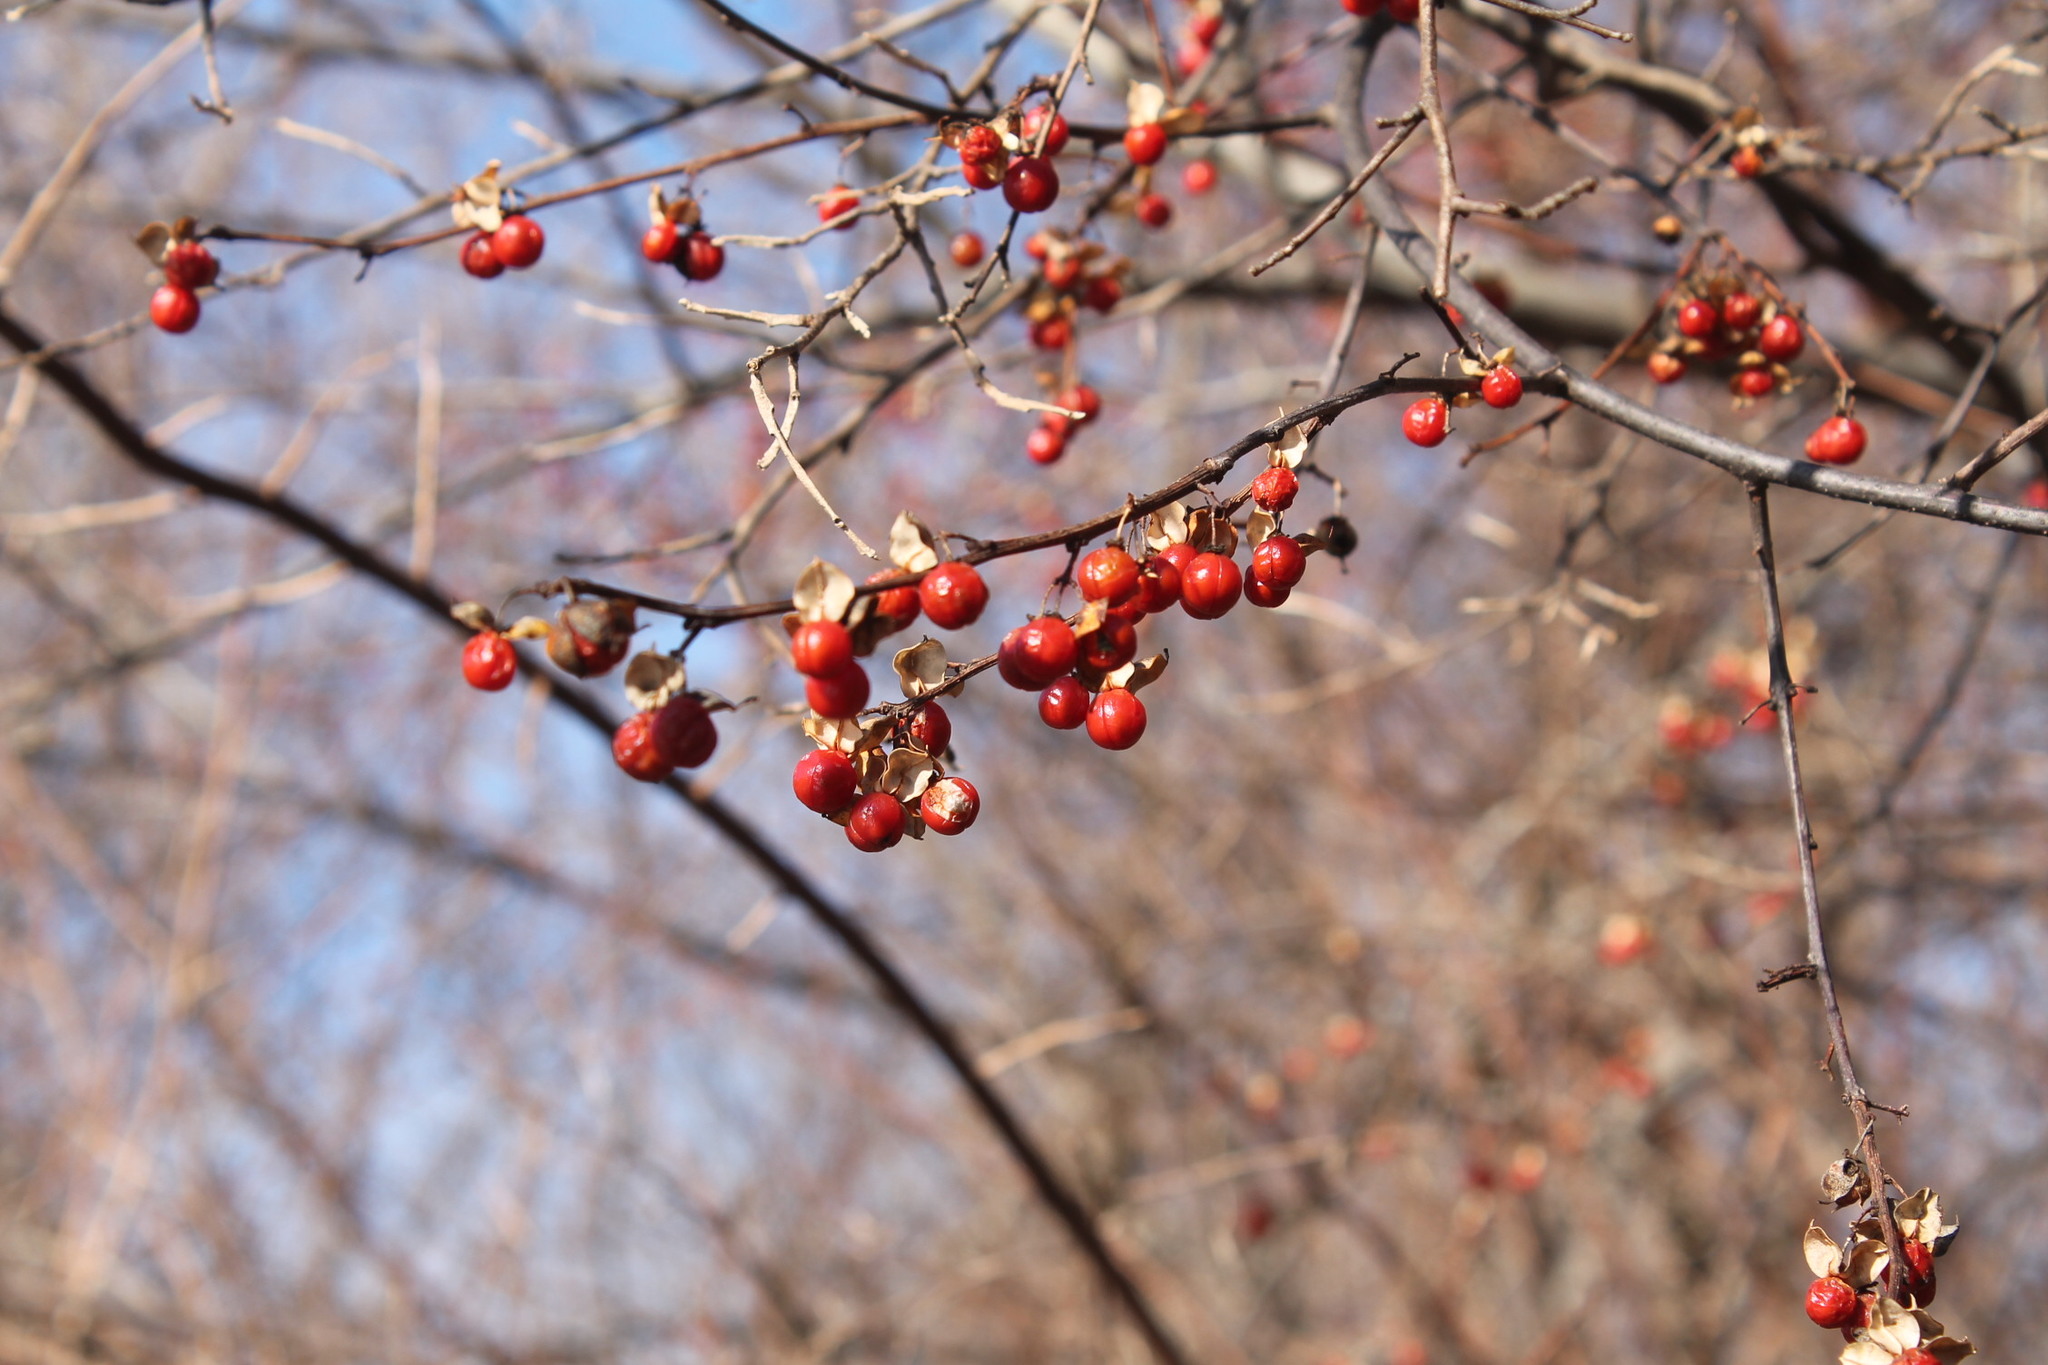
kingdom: Plantae
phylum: Tracheophyta
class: Magnoliopsida
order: Celastrales
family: Celastraceae
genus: Celastrus
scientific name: Celastrus orbiculatus
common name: Oriental bittersweet
